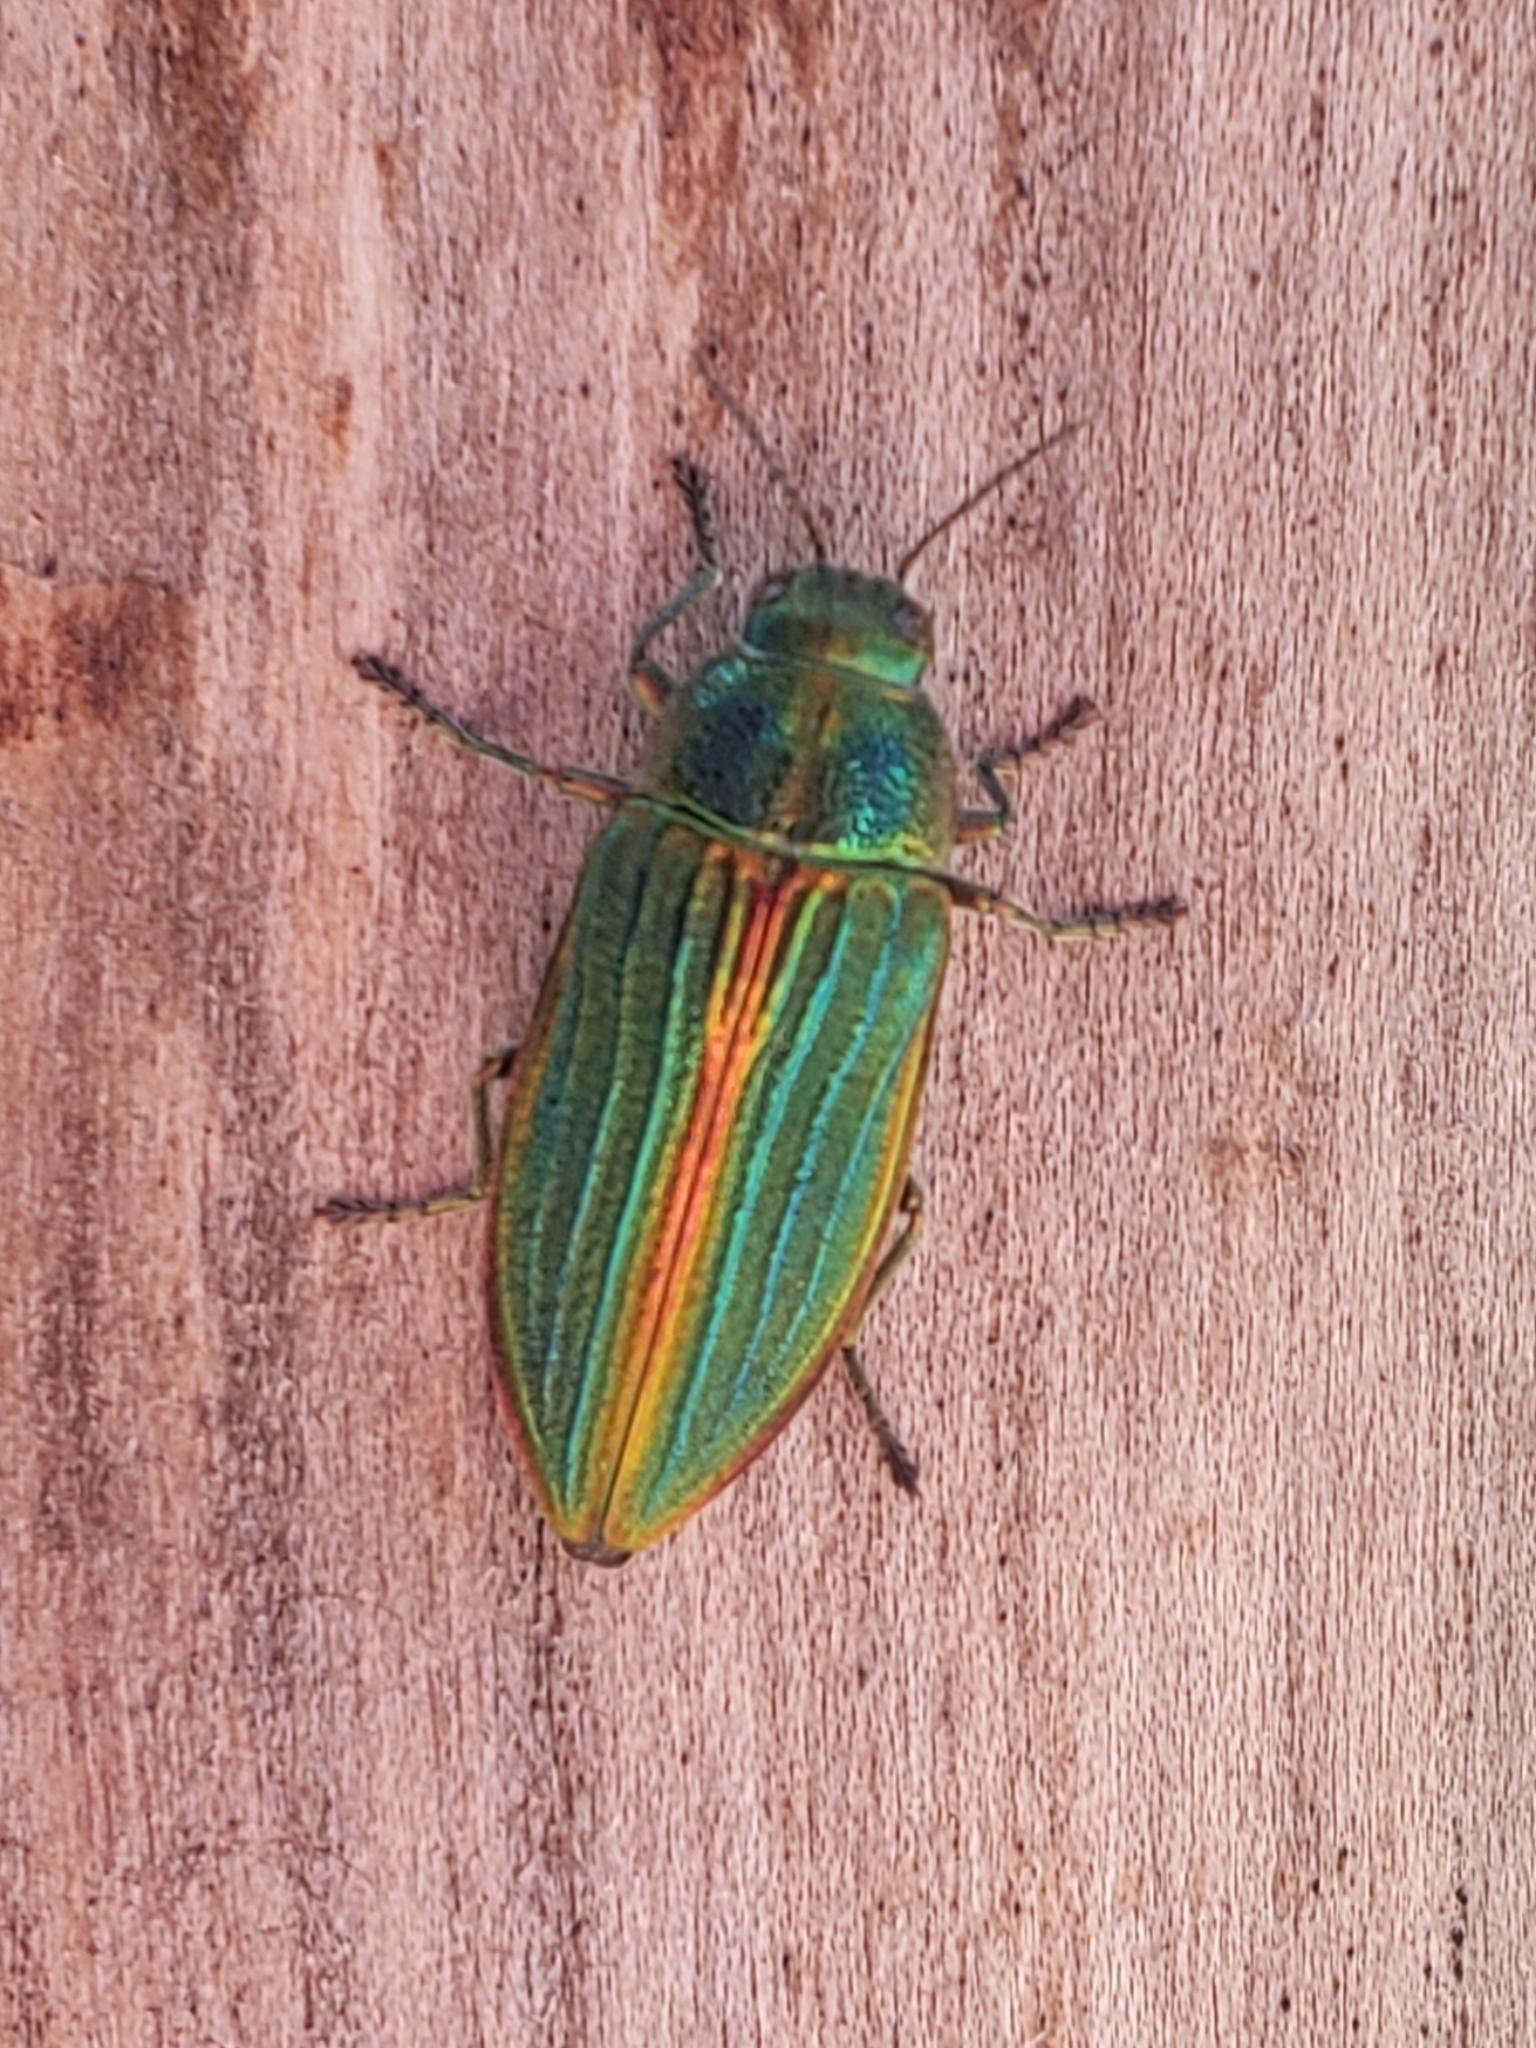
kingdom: Animalia
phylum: Arthropoda
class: Insecta
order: Coleoptera
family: Buprestidae
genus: Buprestis
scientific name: Buprestis aurulenta
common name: Golden buprestid
